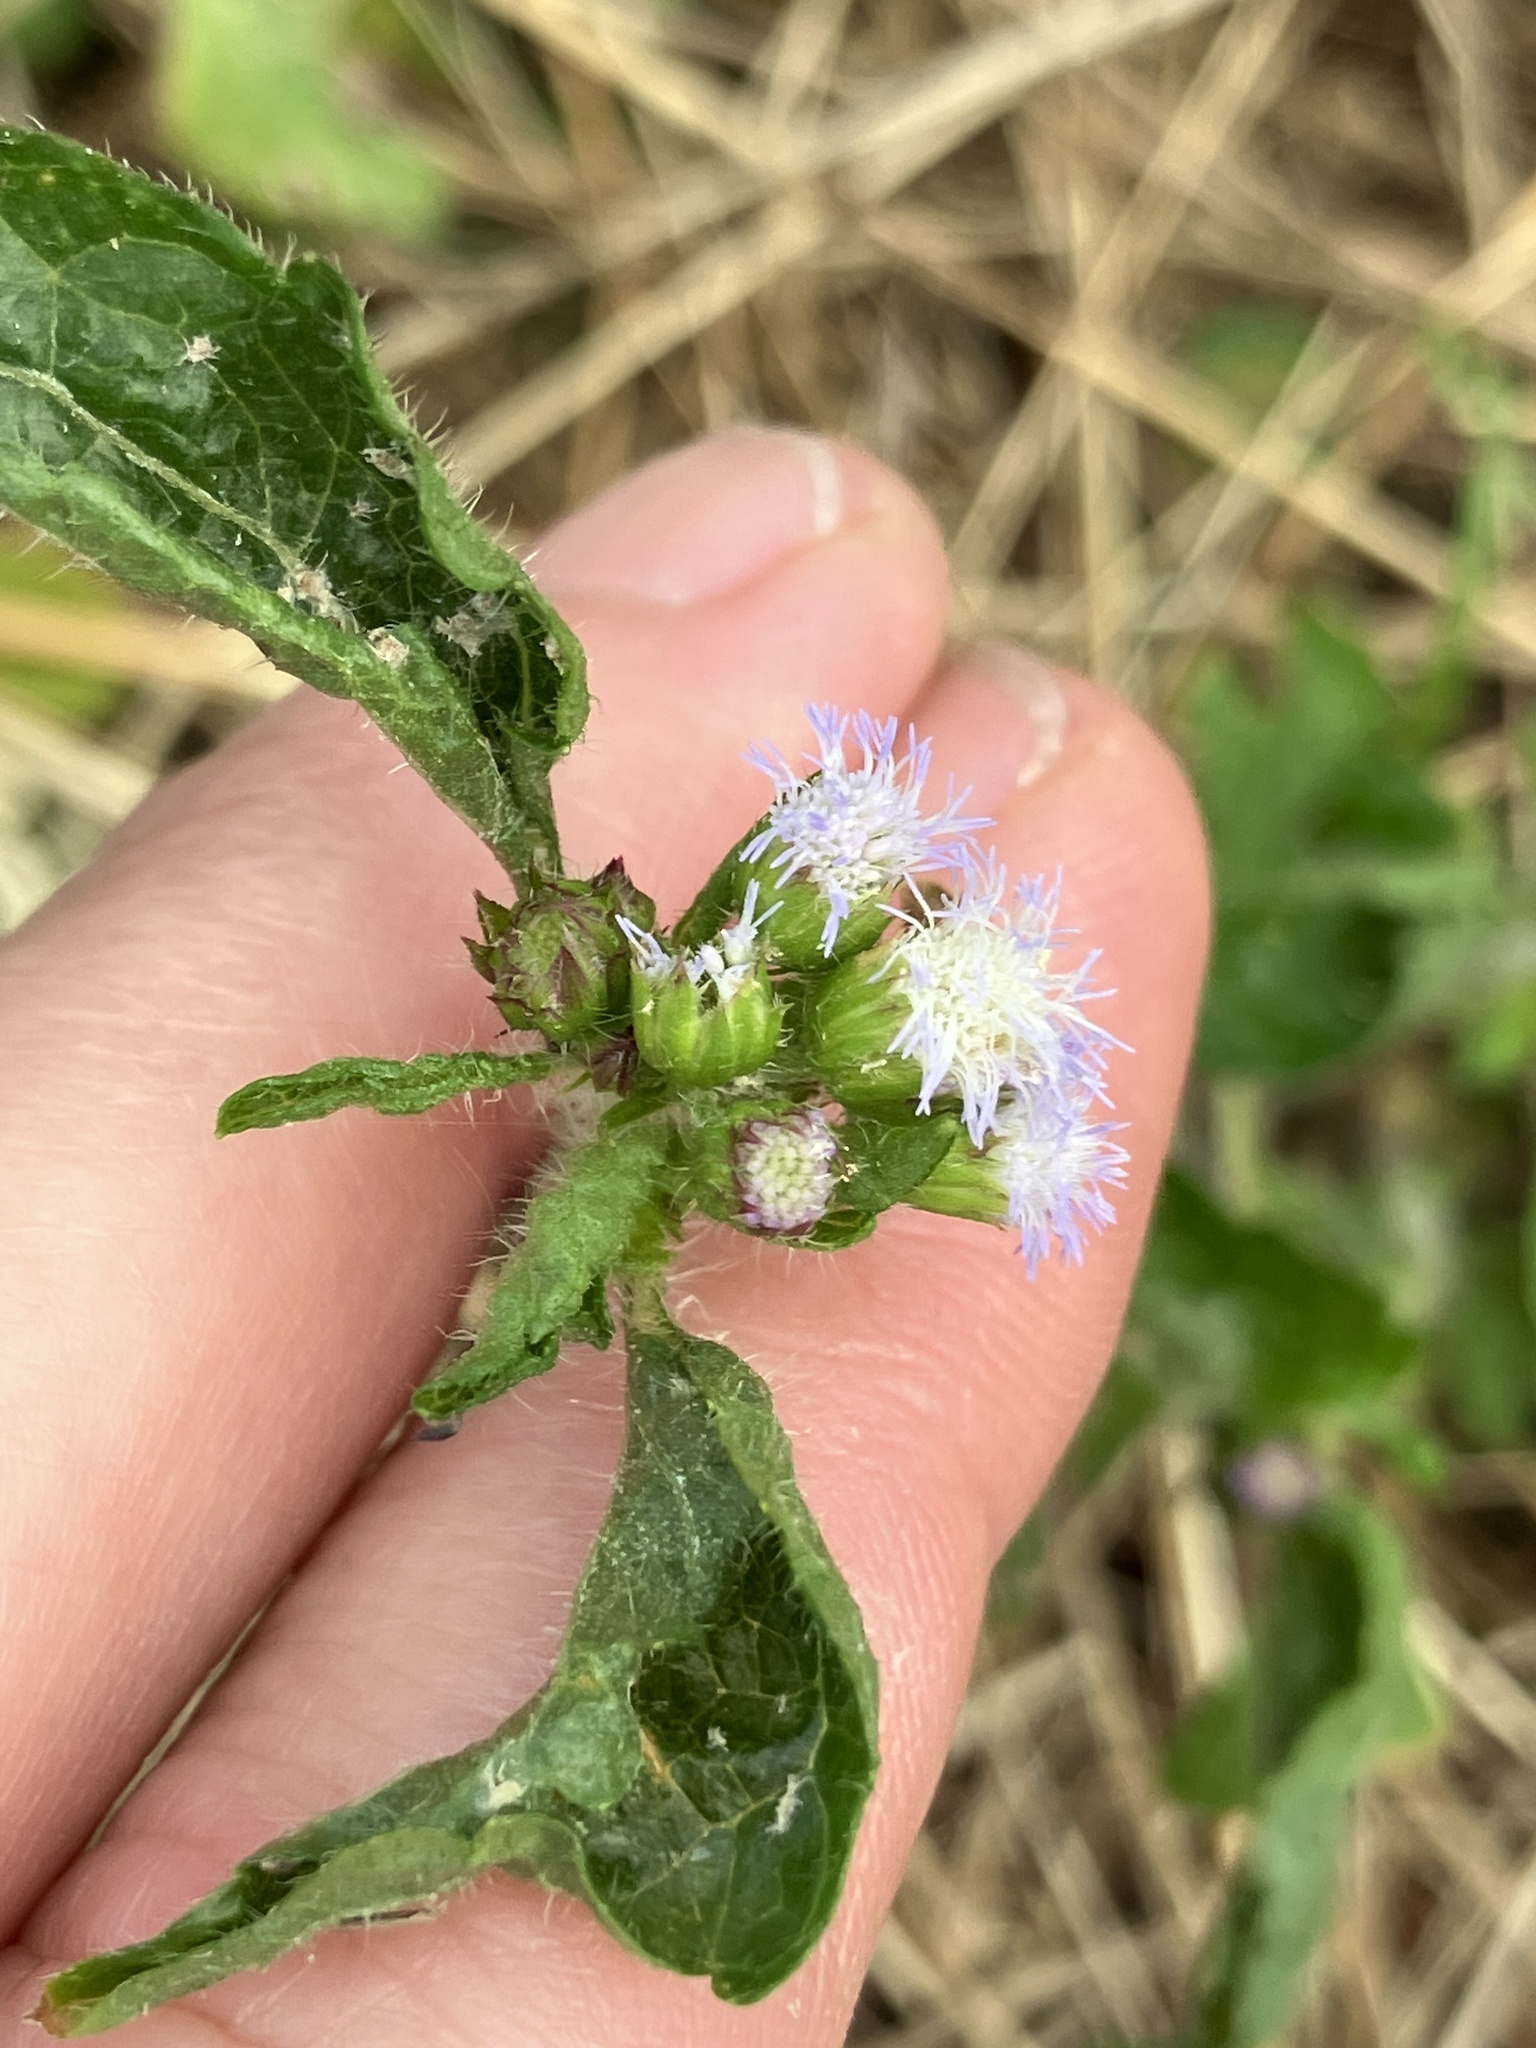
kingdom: Plantae
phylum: Tracheophyta
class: Magnoliopsida
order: Asterales
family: Asteraceae
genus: Ageratum
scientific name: Ageratum conyzoides
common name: Tropical whiteweed
